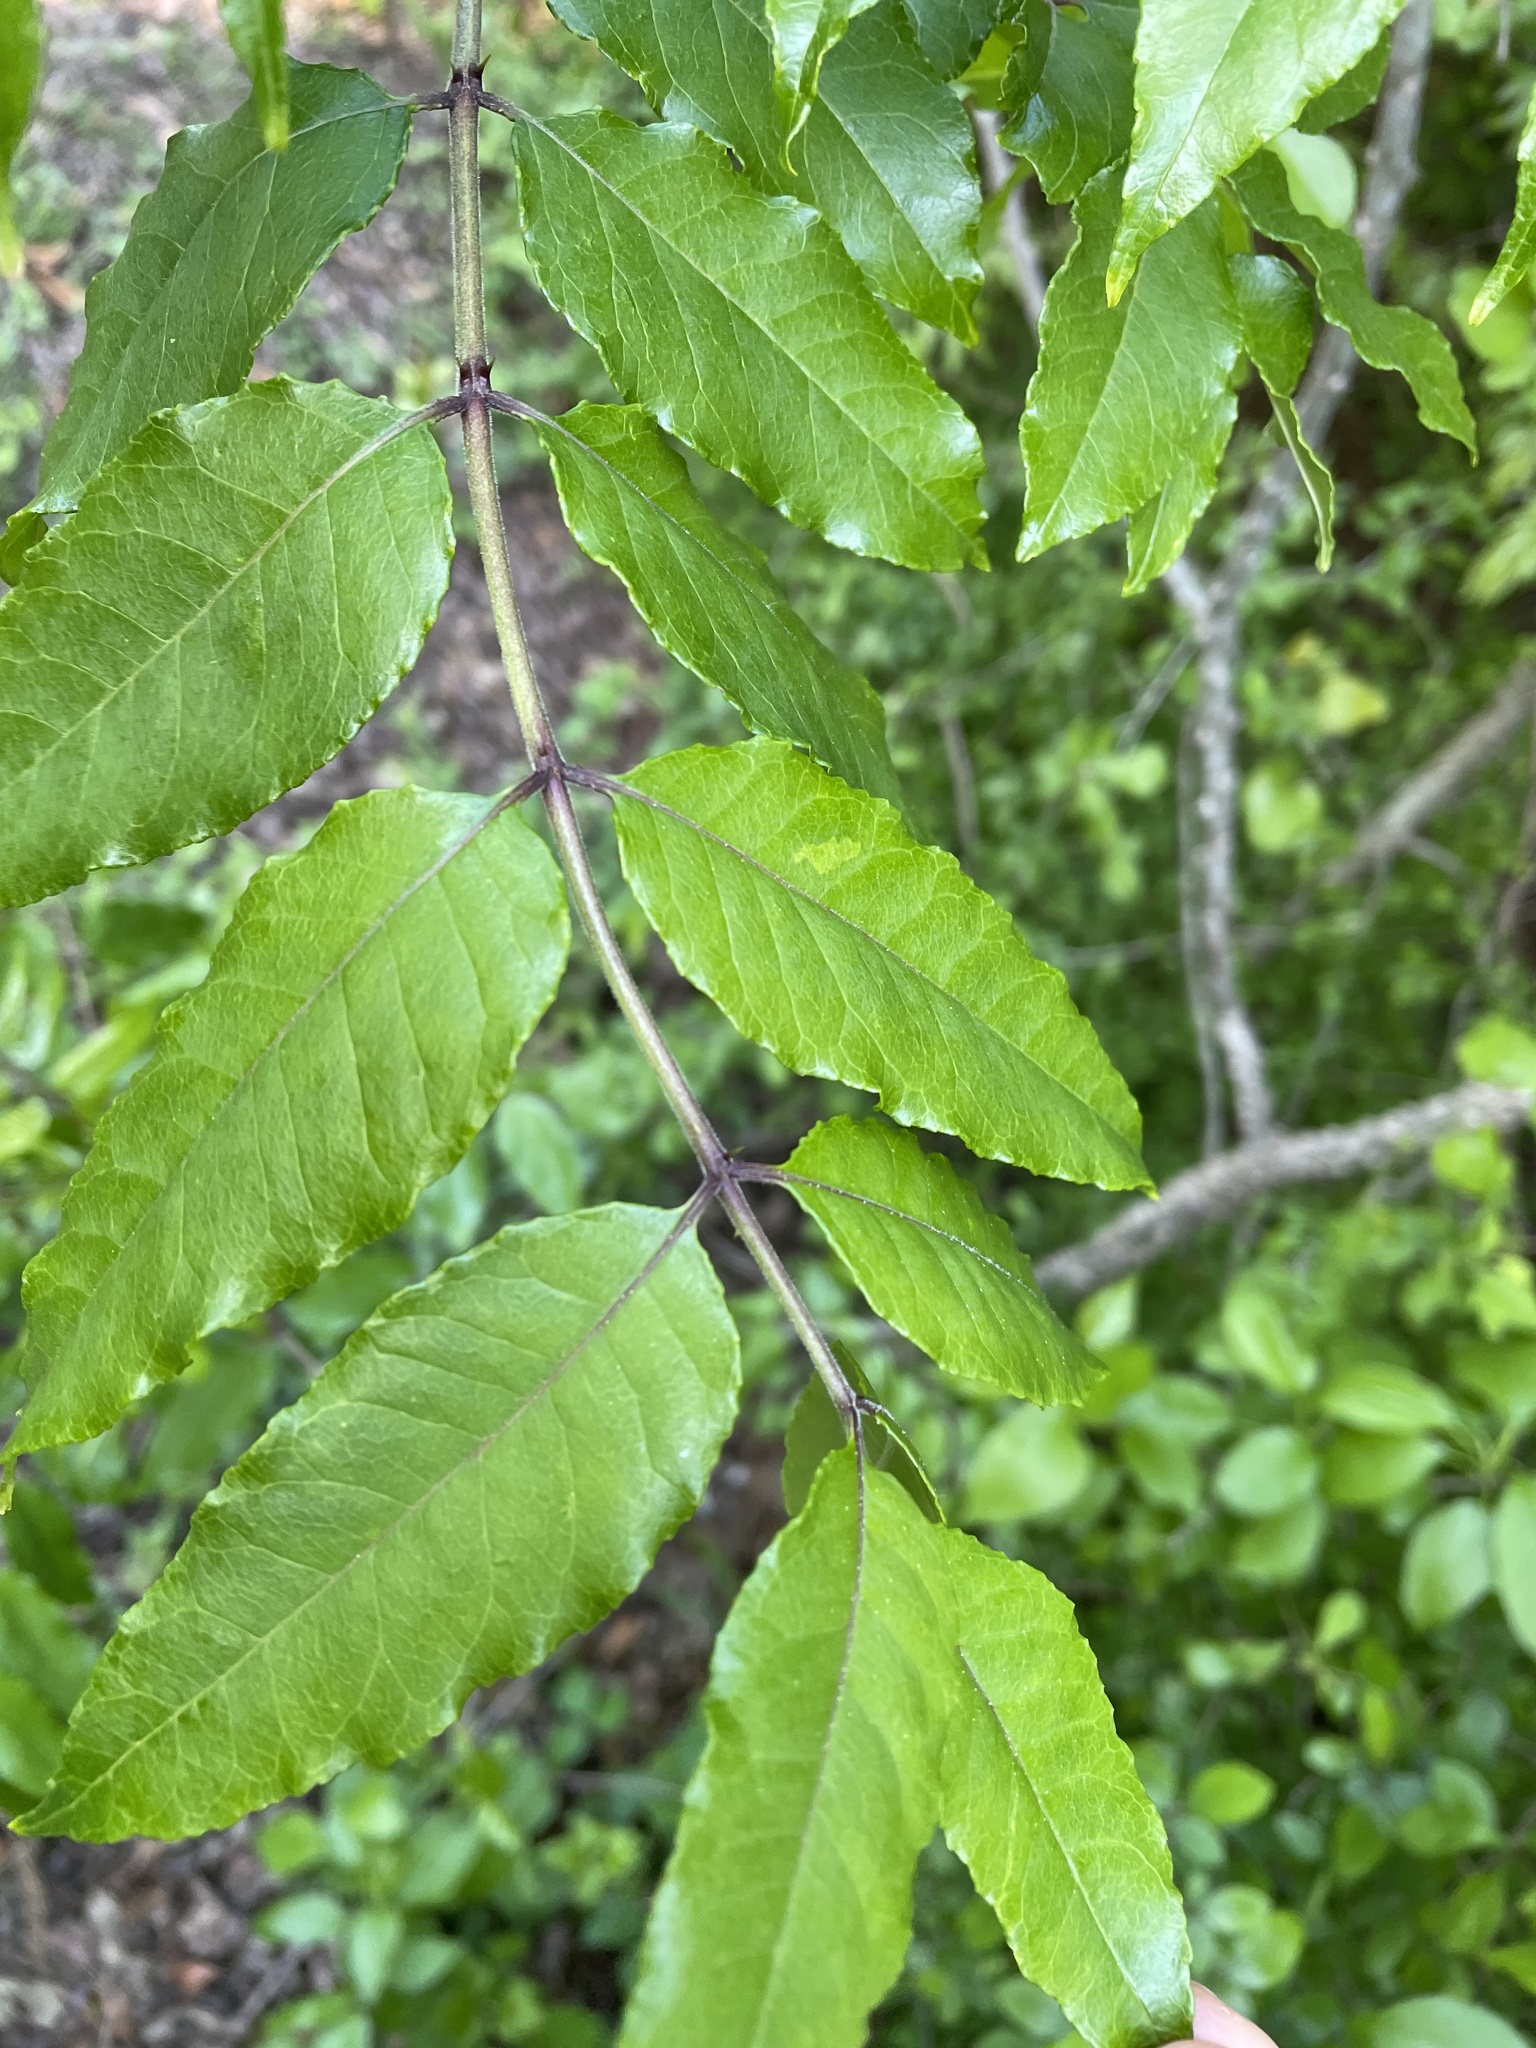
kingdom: Plantae
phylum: Tracheophyta
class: Magnoliopsida
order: Sapindales
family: Rutaceae
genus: Zanthoxylum
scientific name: Zanthoxylum clava-herculis
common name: Hercules'-club
